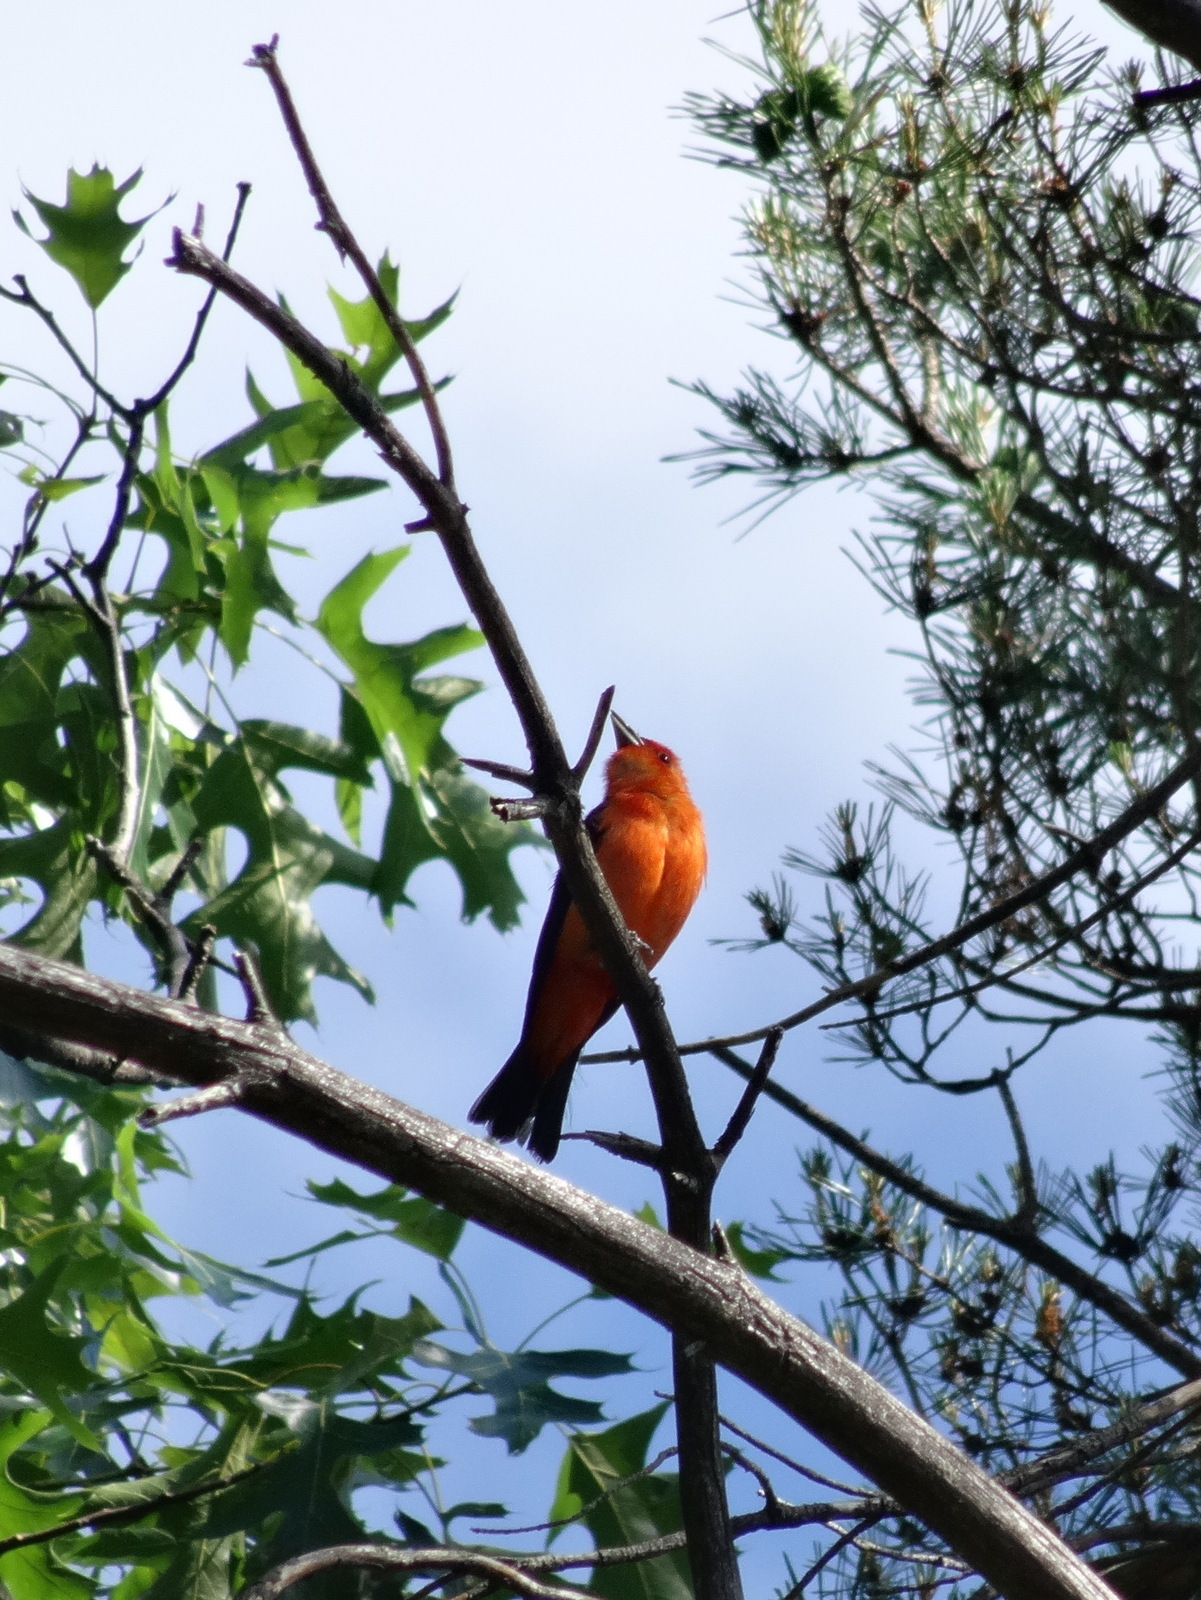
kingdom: Animalia
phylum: Chordata
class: Aves
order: Passeriformes
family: Cardinalidae
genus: Piranga
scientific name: Piranga olivacea
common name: Scarlet tanager
